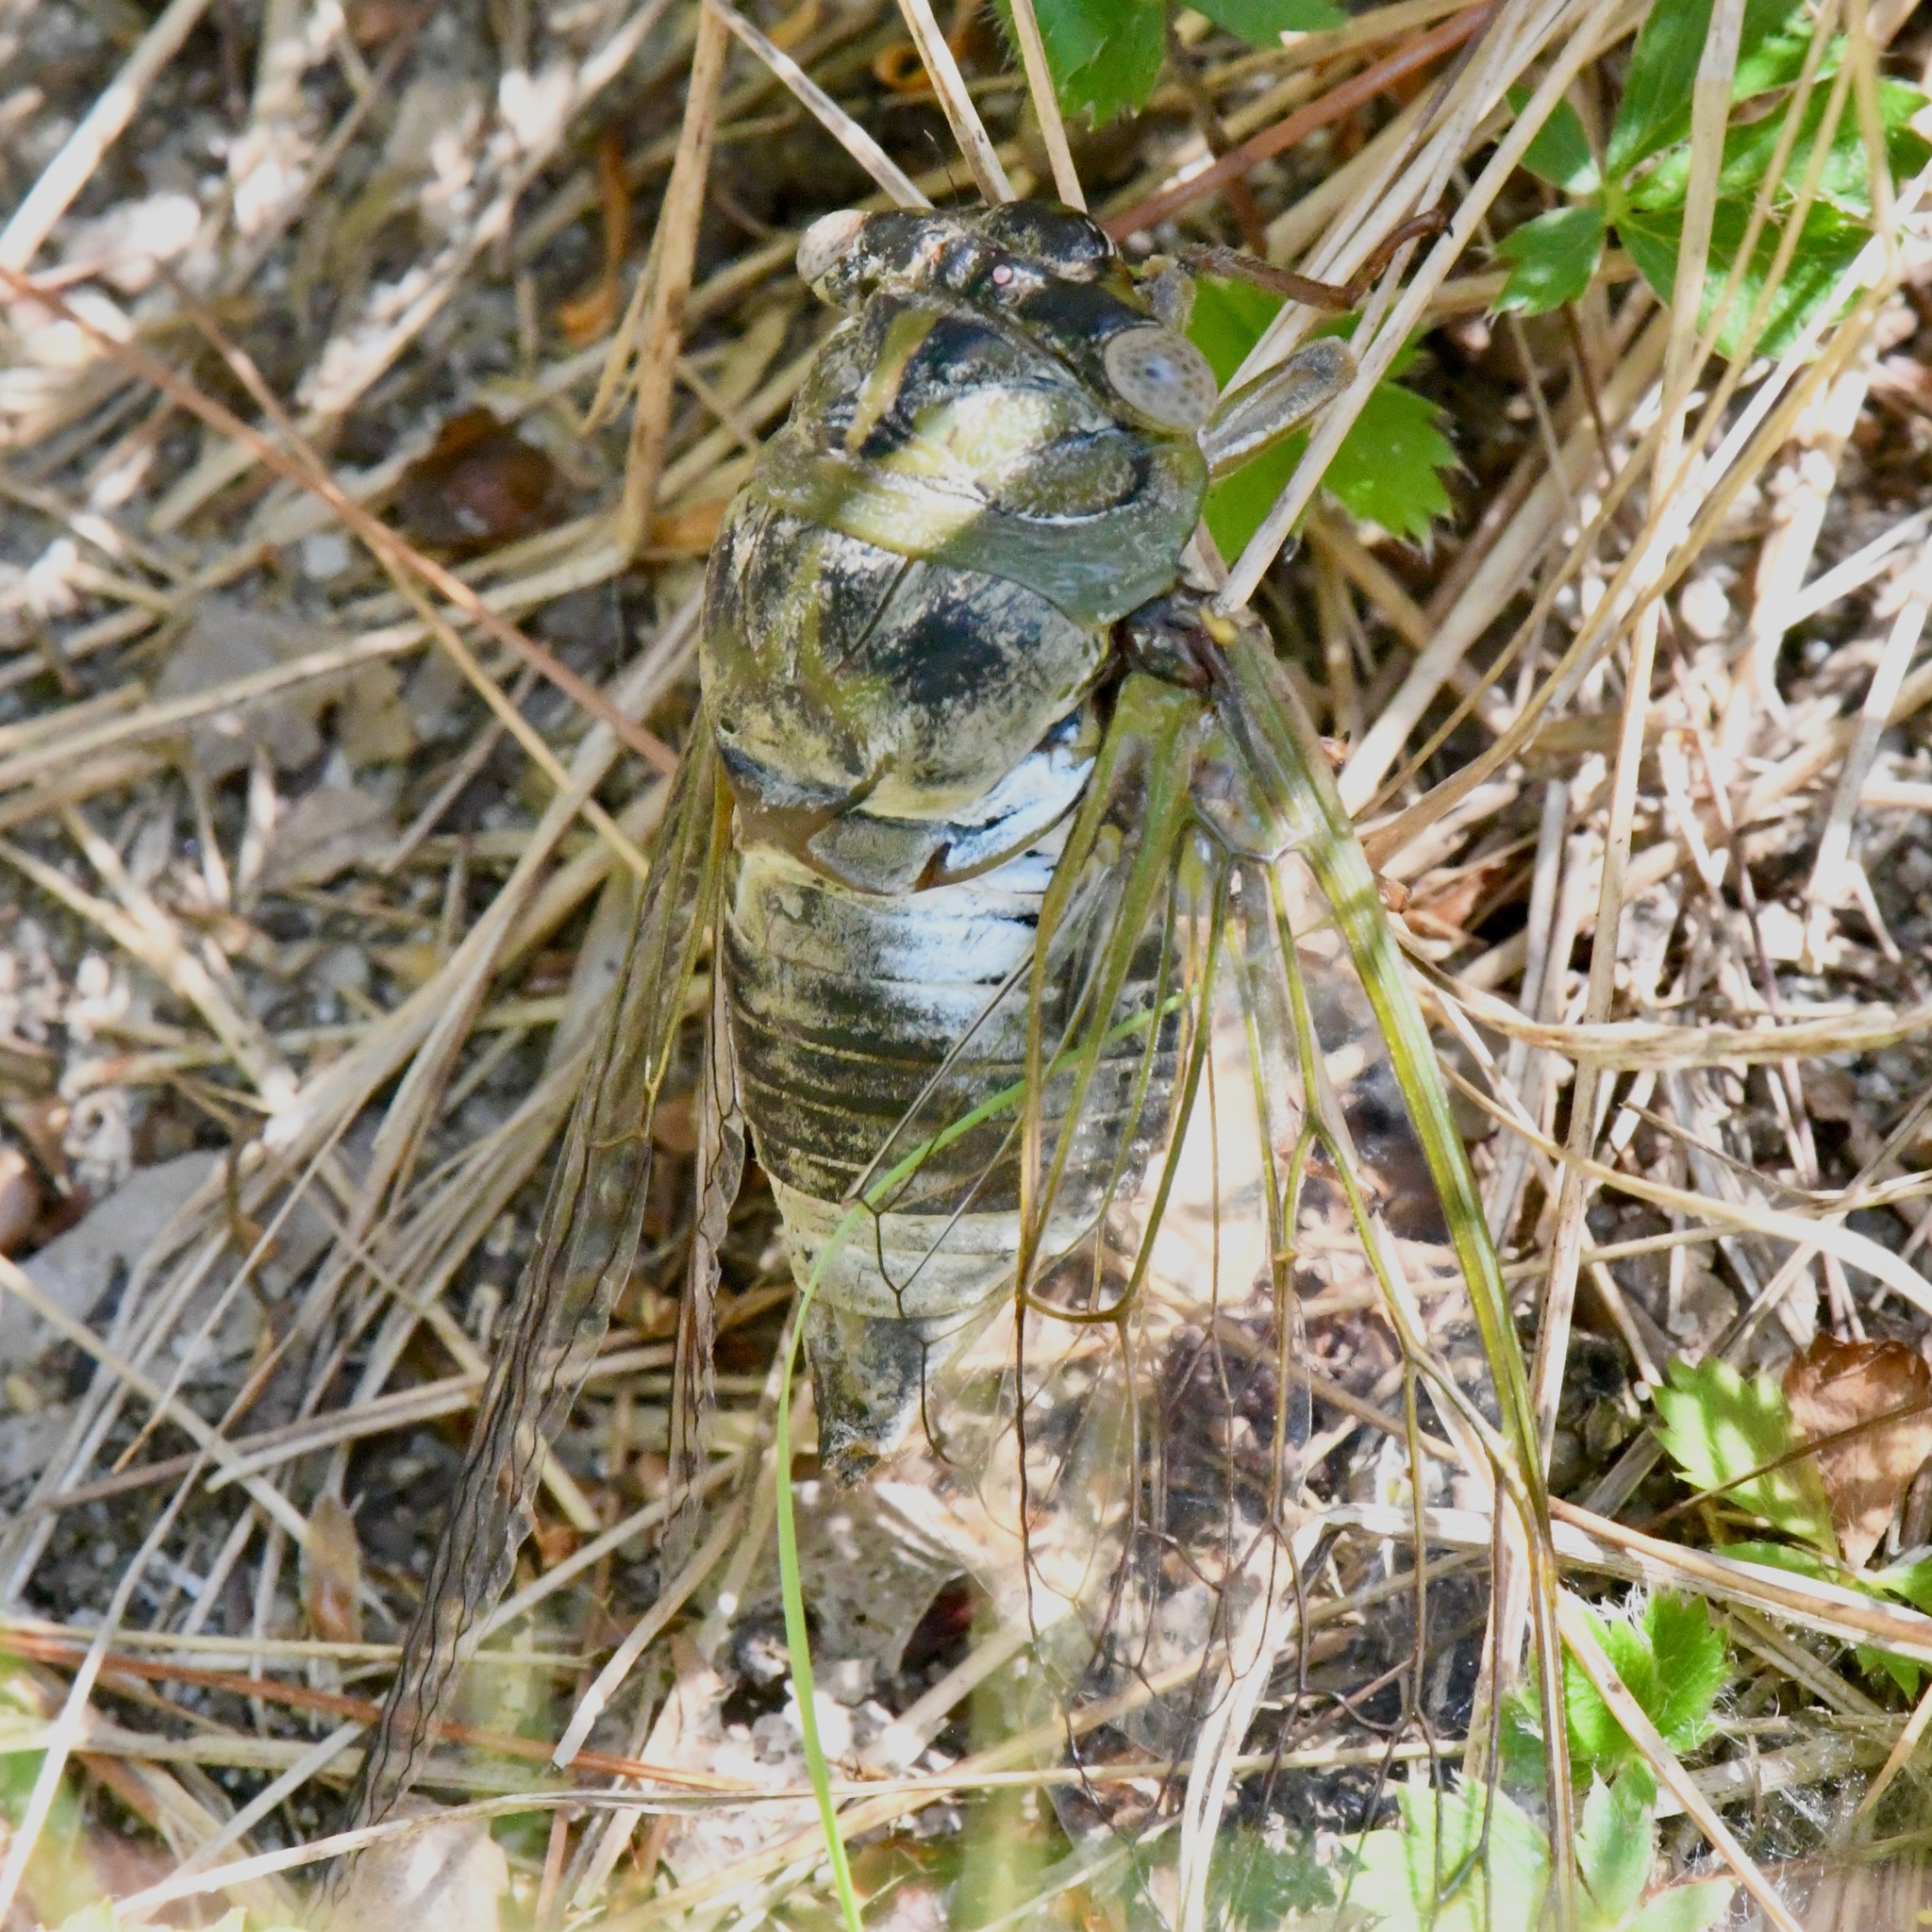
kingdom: Animalia
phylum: Arthropoda
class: Insecta
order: Hemiptera
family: Cicadidae
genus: Diceroprocta
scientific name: Diceroprocta grossa
